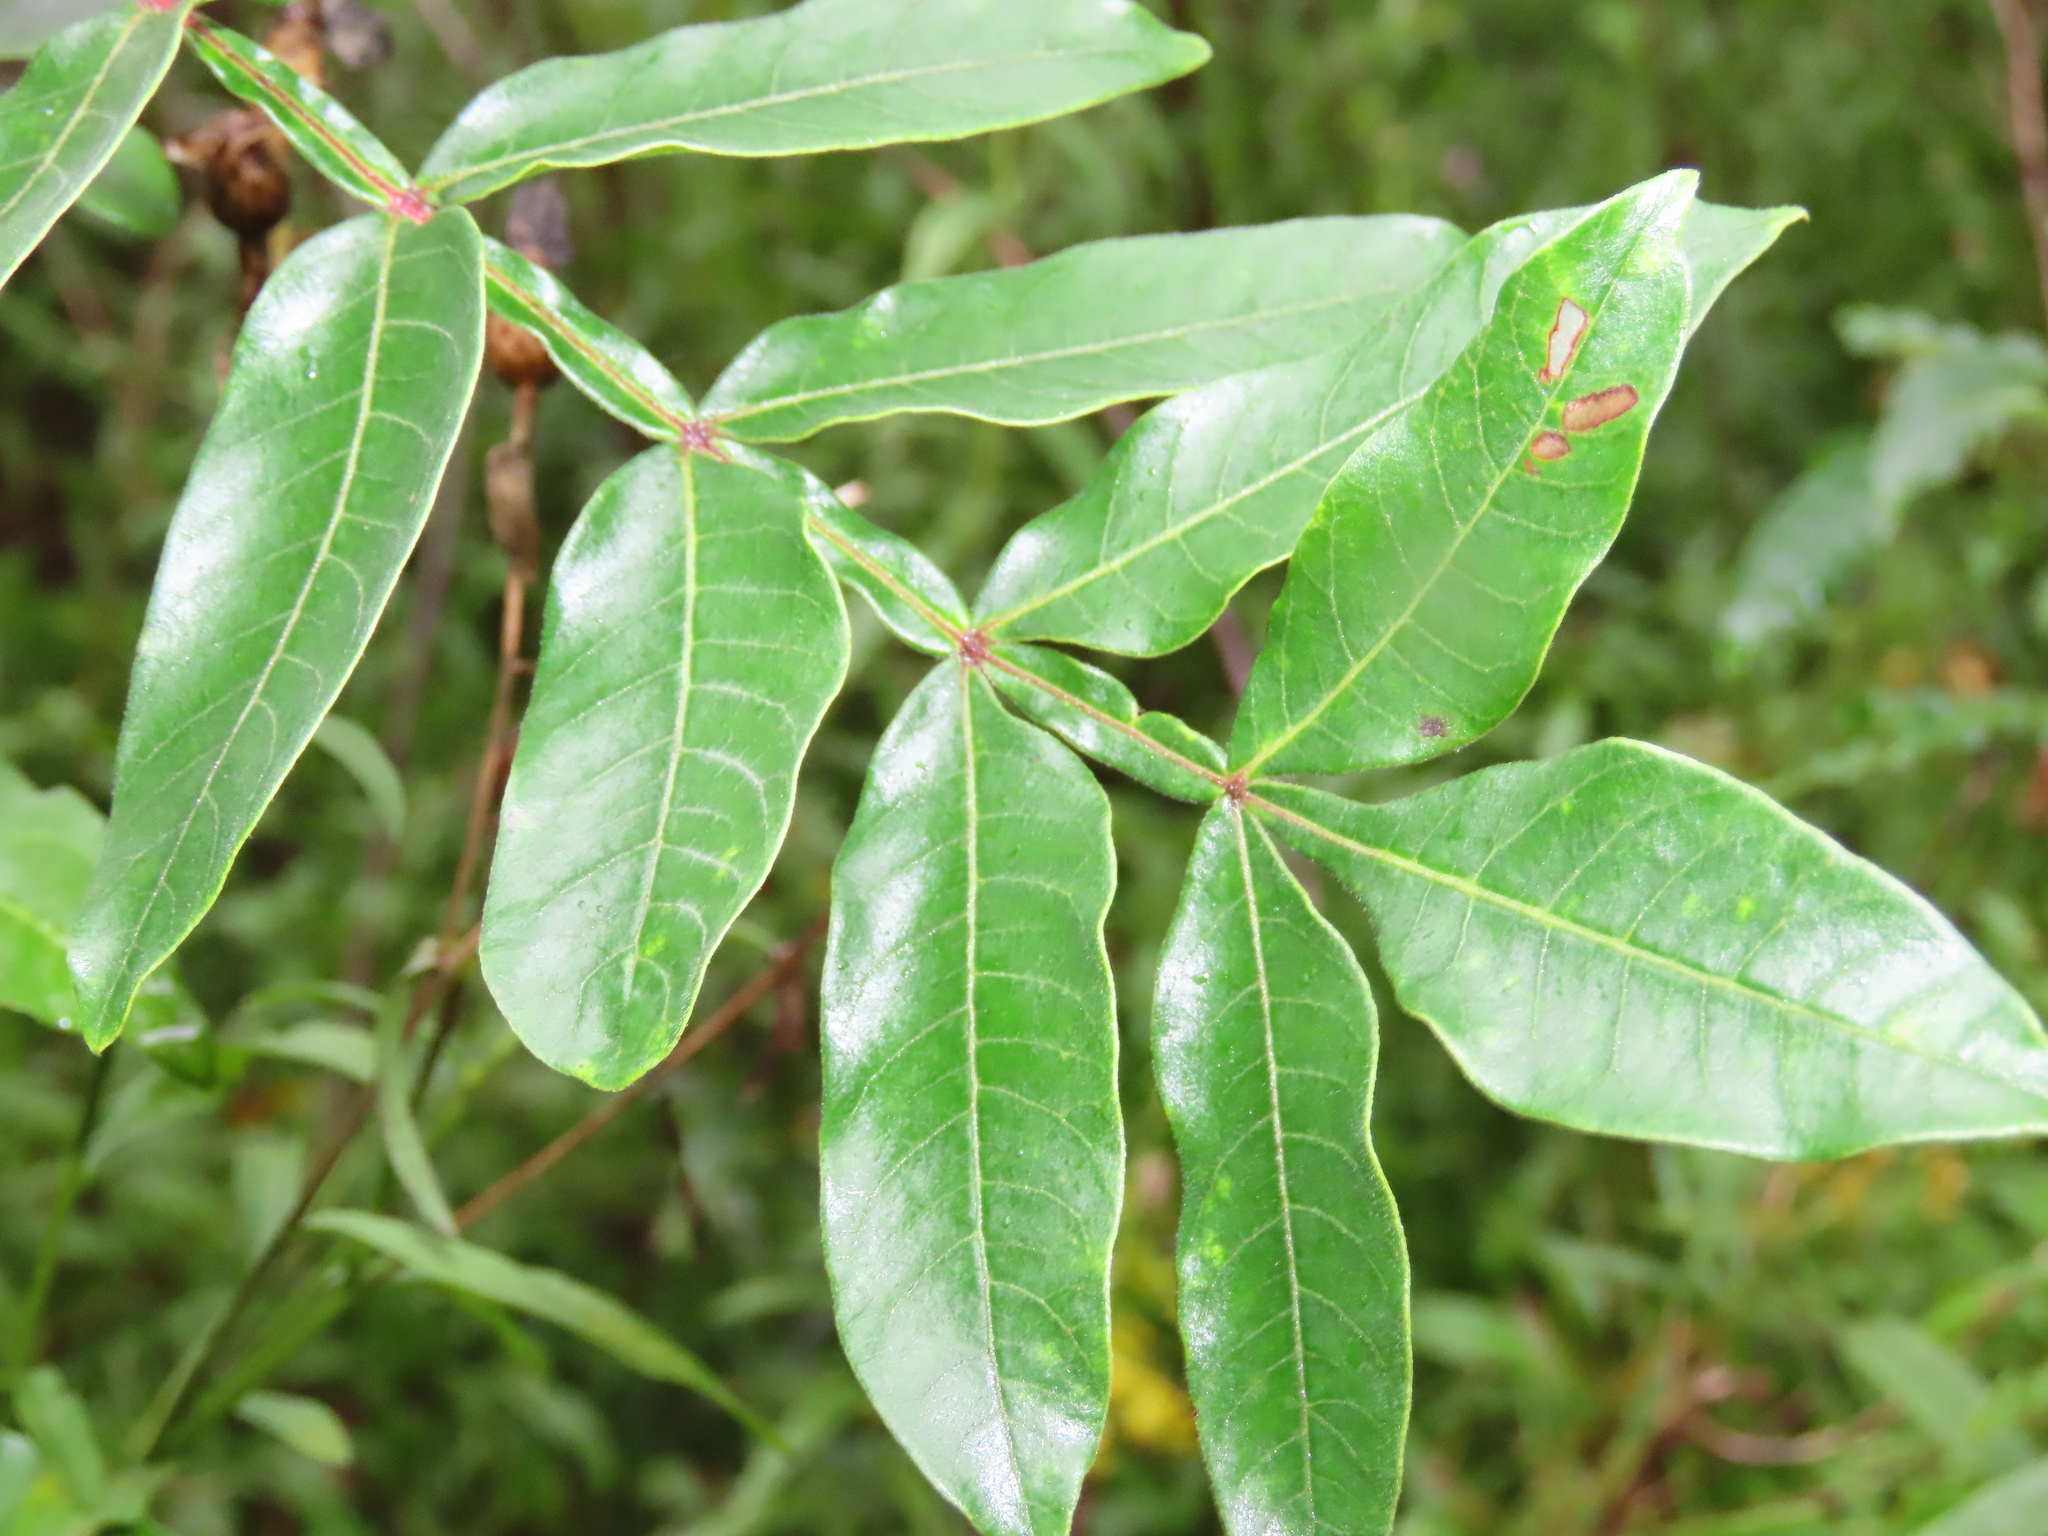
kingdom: Plantae
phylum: Tracheophyta
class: Magnoliopsida
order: Sapindales
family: Anacardiaceae
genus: Rhus
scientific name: Rhus copallina
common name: Shining sumac
